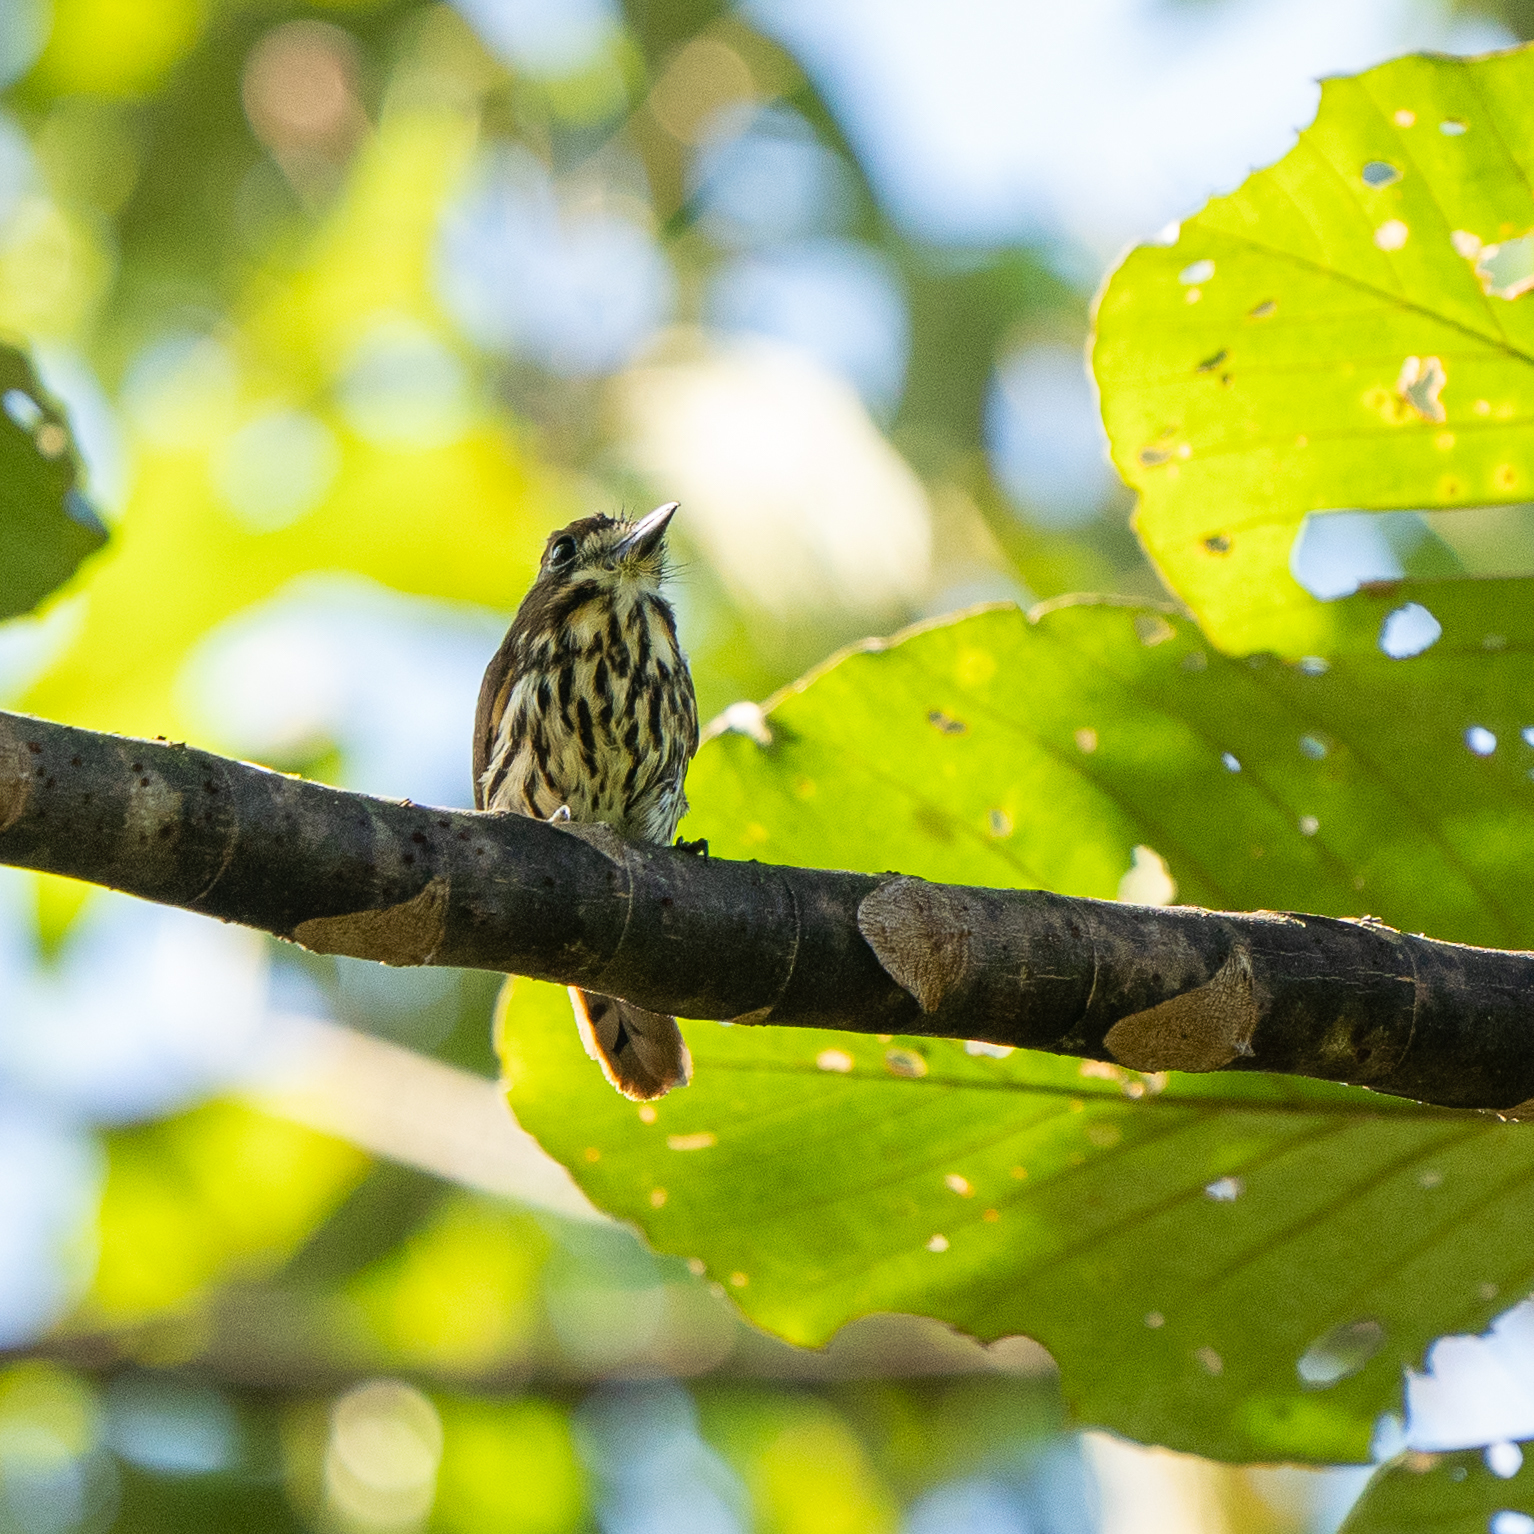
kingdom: Animalia
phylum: Chordata
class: Aves
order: Piciformes
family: Bucconidae
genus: Micromonacha
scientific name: Micromonacha lanceolata
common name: Lanceolated monklet
